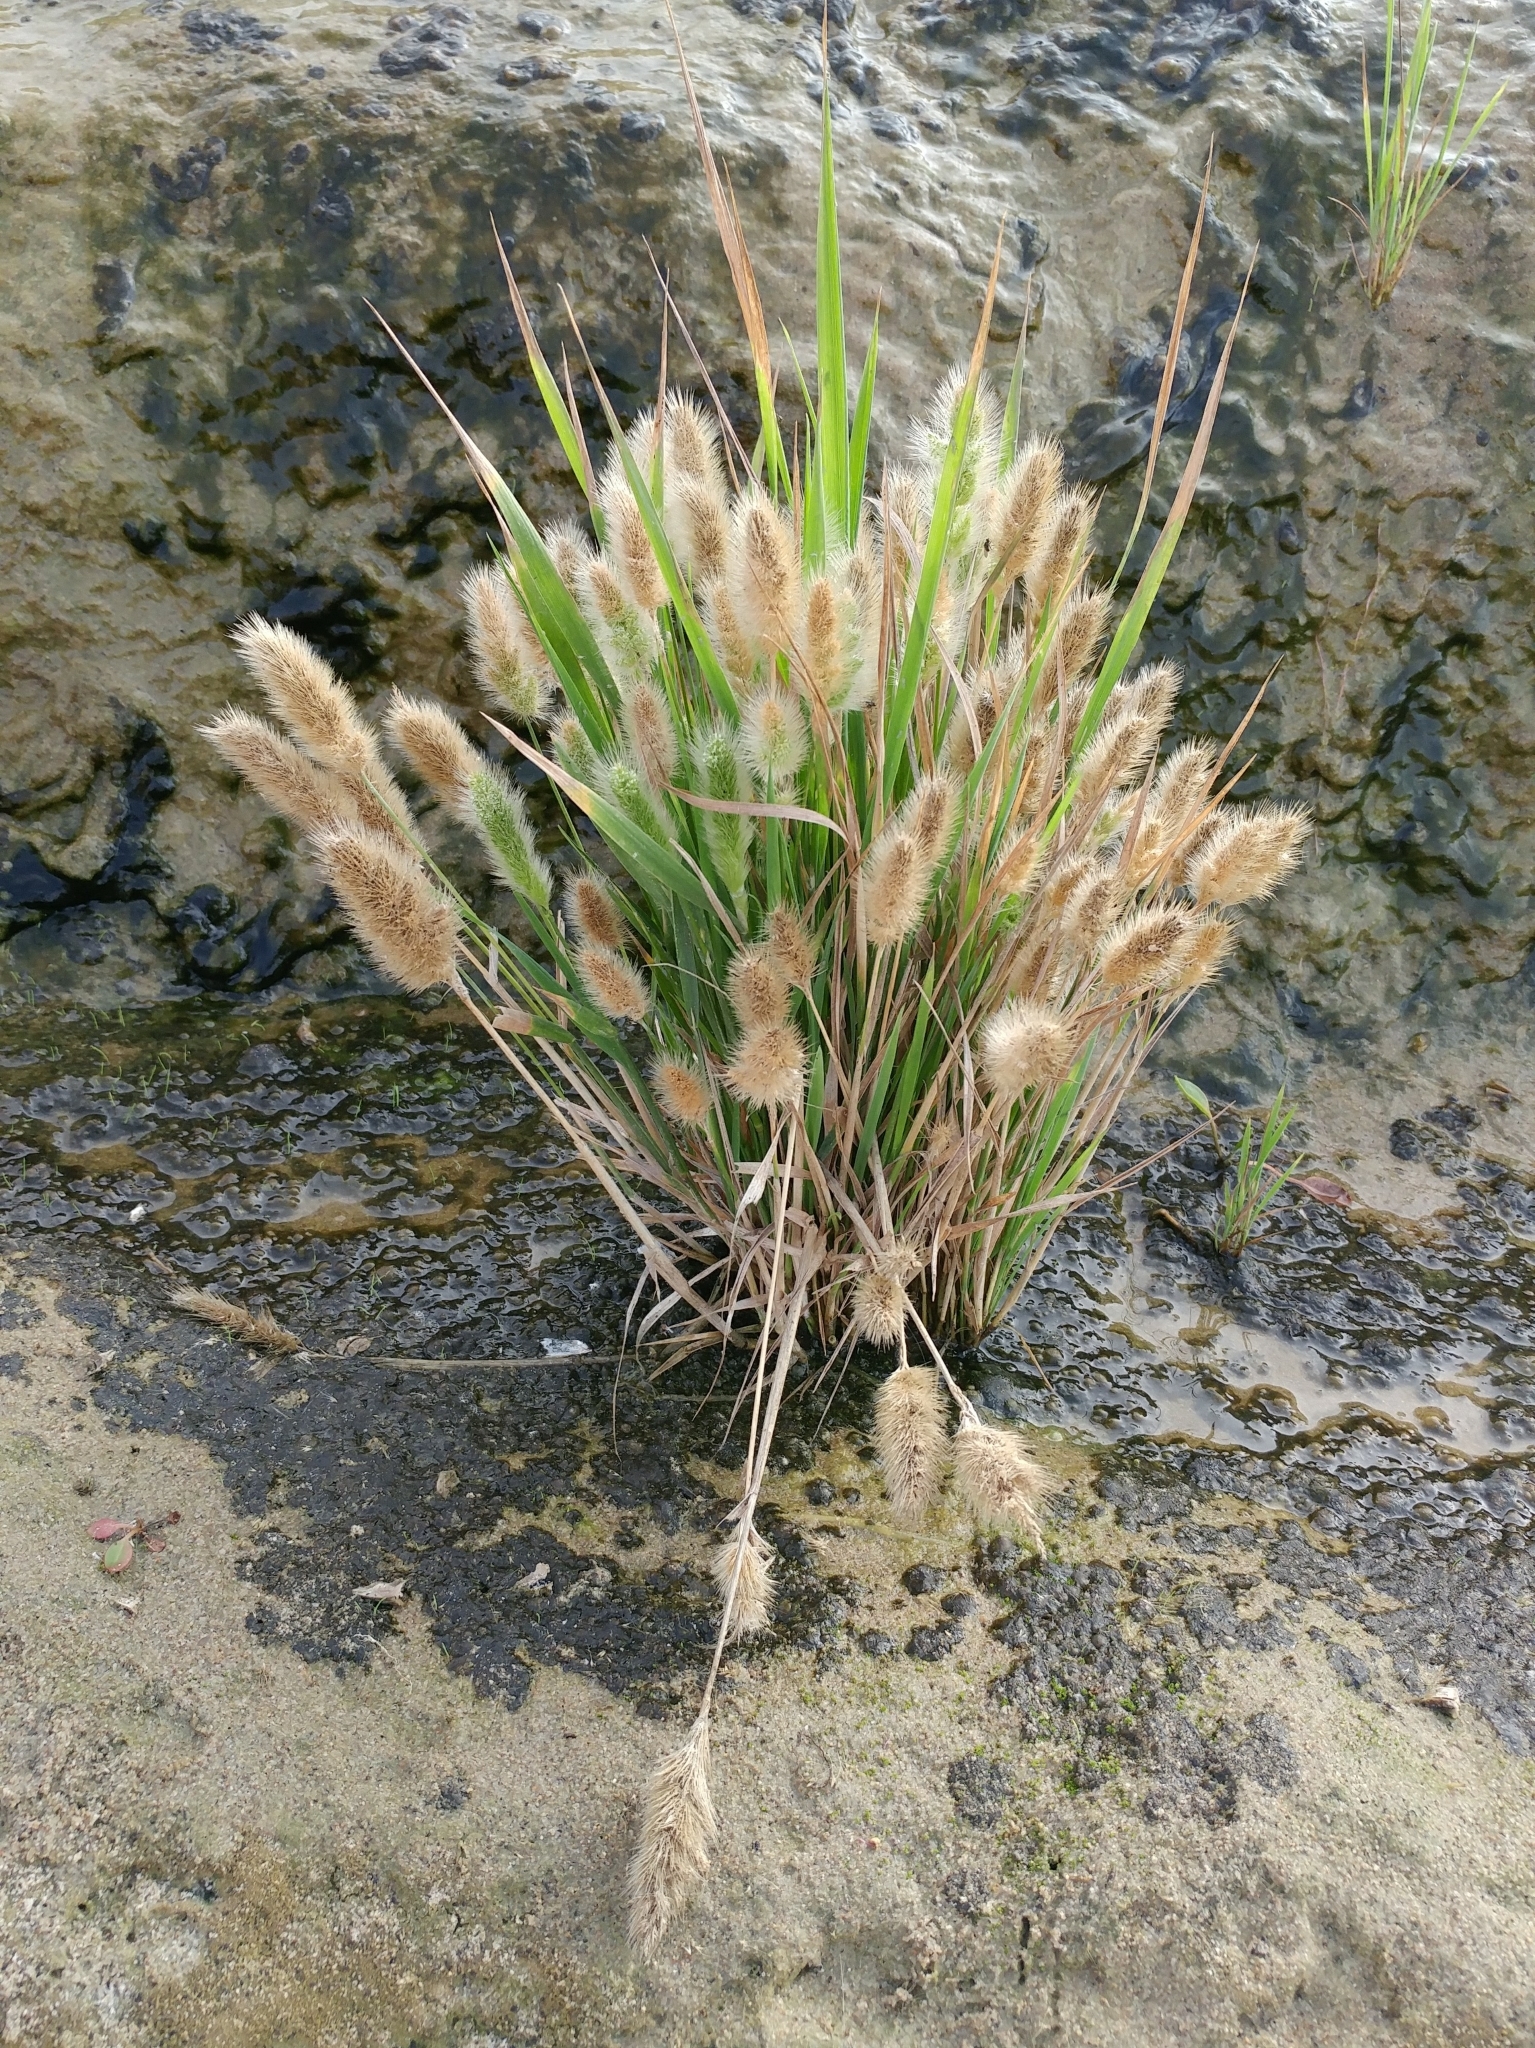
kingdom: Plantae
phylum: Tracheophyta
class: Liliopsida
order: Poales
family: Poaceae
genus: Polypogon
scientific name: Polypogon monspeliensis
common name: Annual rabbitsfoot grass
